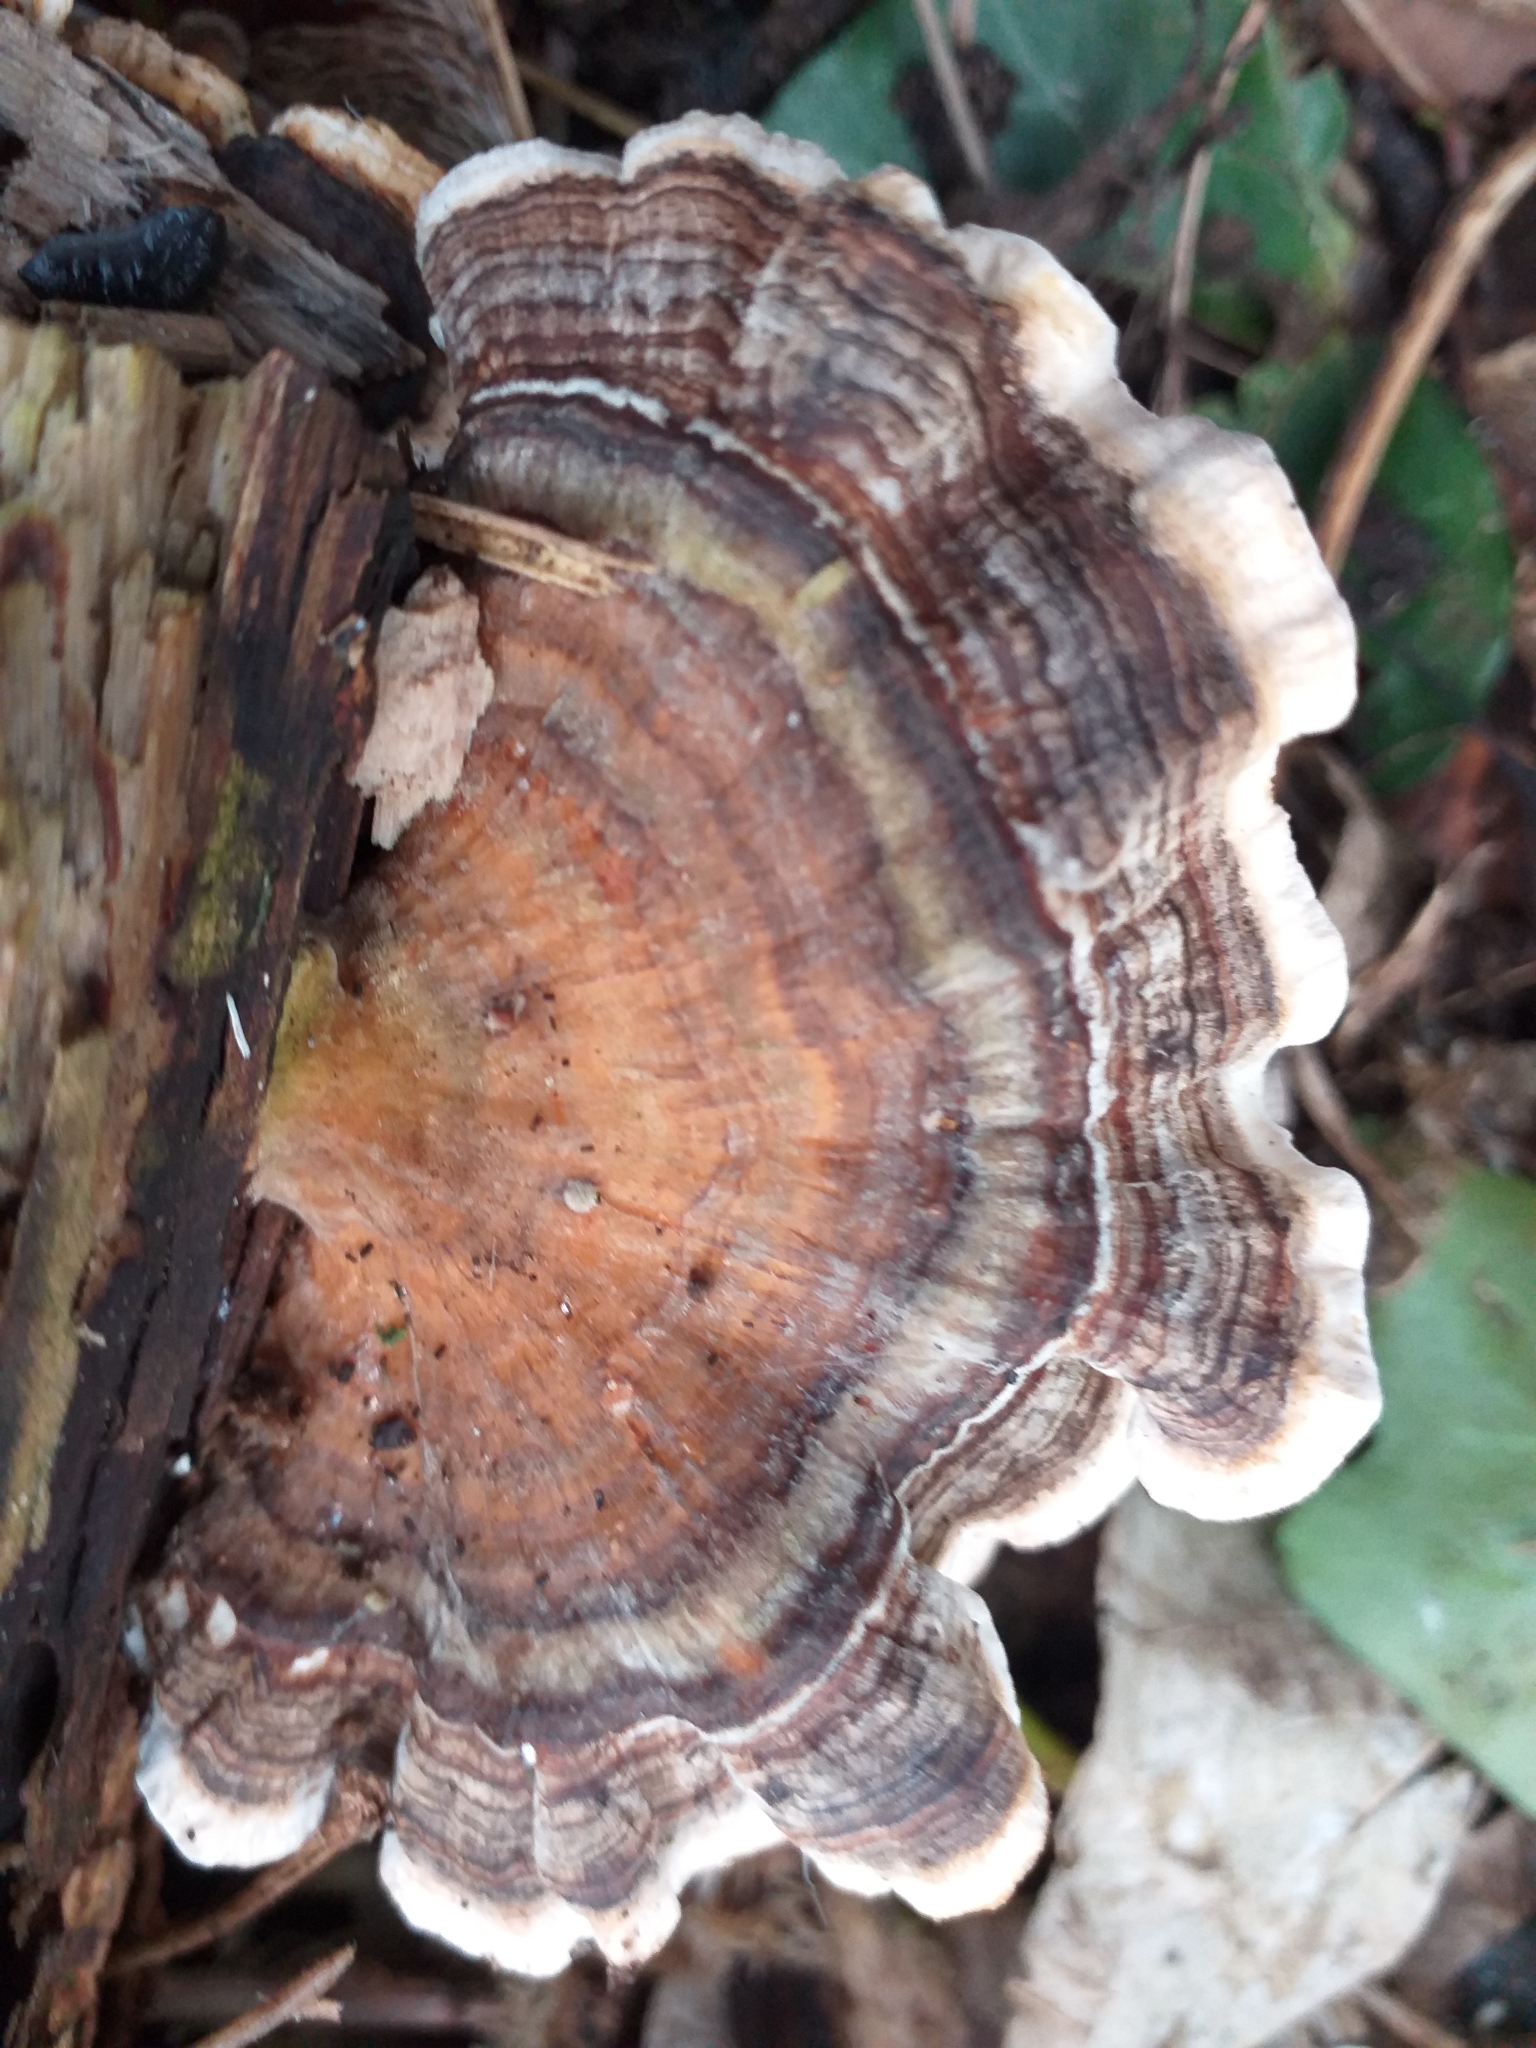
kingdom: Fungi
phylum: Basidiomycota
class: Agaricomycetes
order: Polyporales
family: Polyporaceae
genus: Trametes
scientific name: Trametes versicolor
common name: Turkeytail
